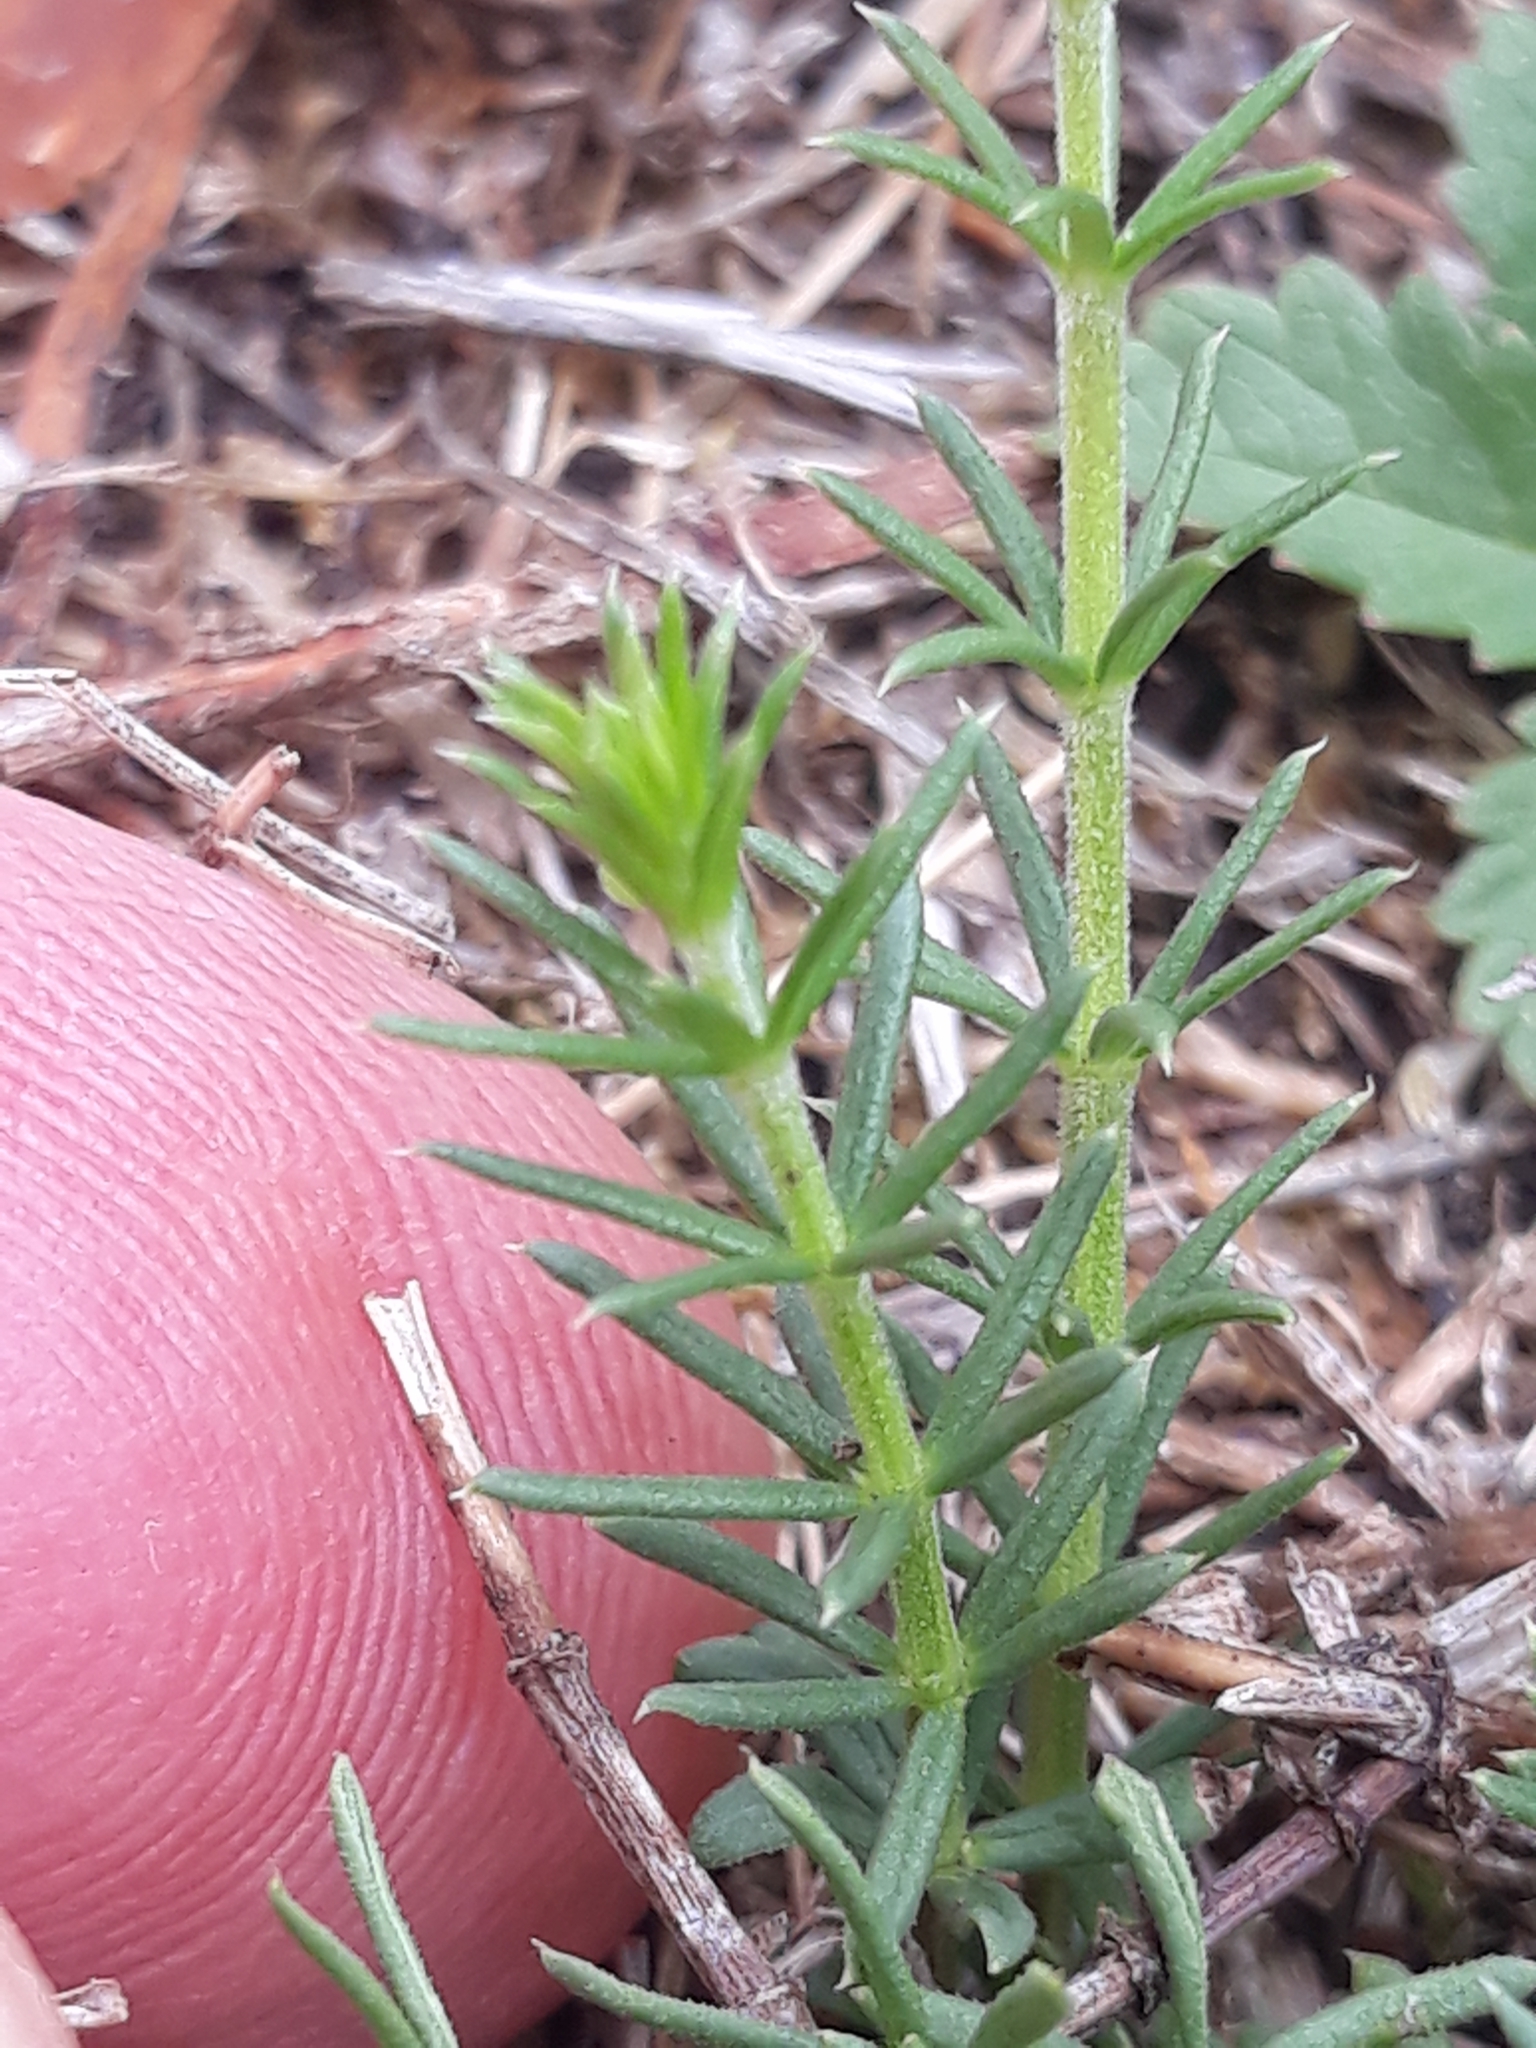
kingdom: Plantae
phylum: Tracheophyta
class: Magnoliopsida
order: Gentianales
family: Rubiaceae
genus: Galium
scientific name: Galium verum
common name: Lady's bedstraw
